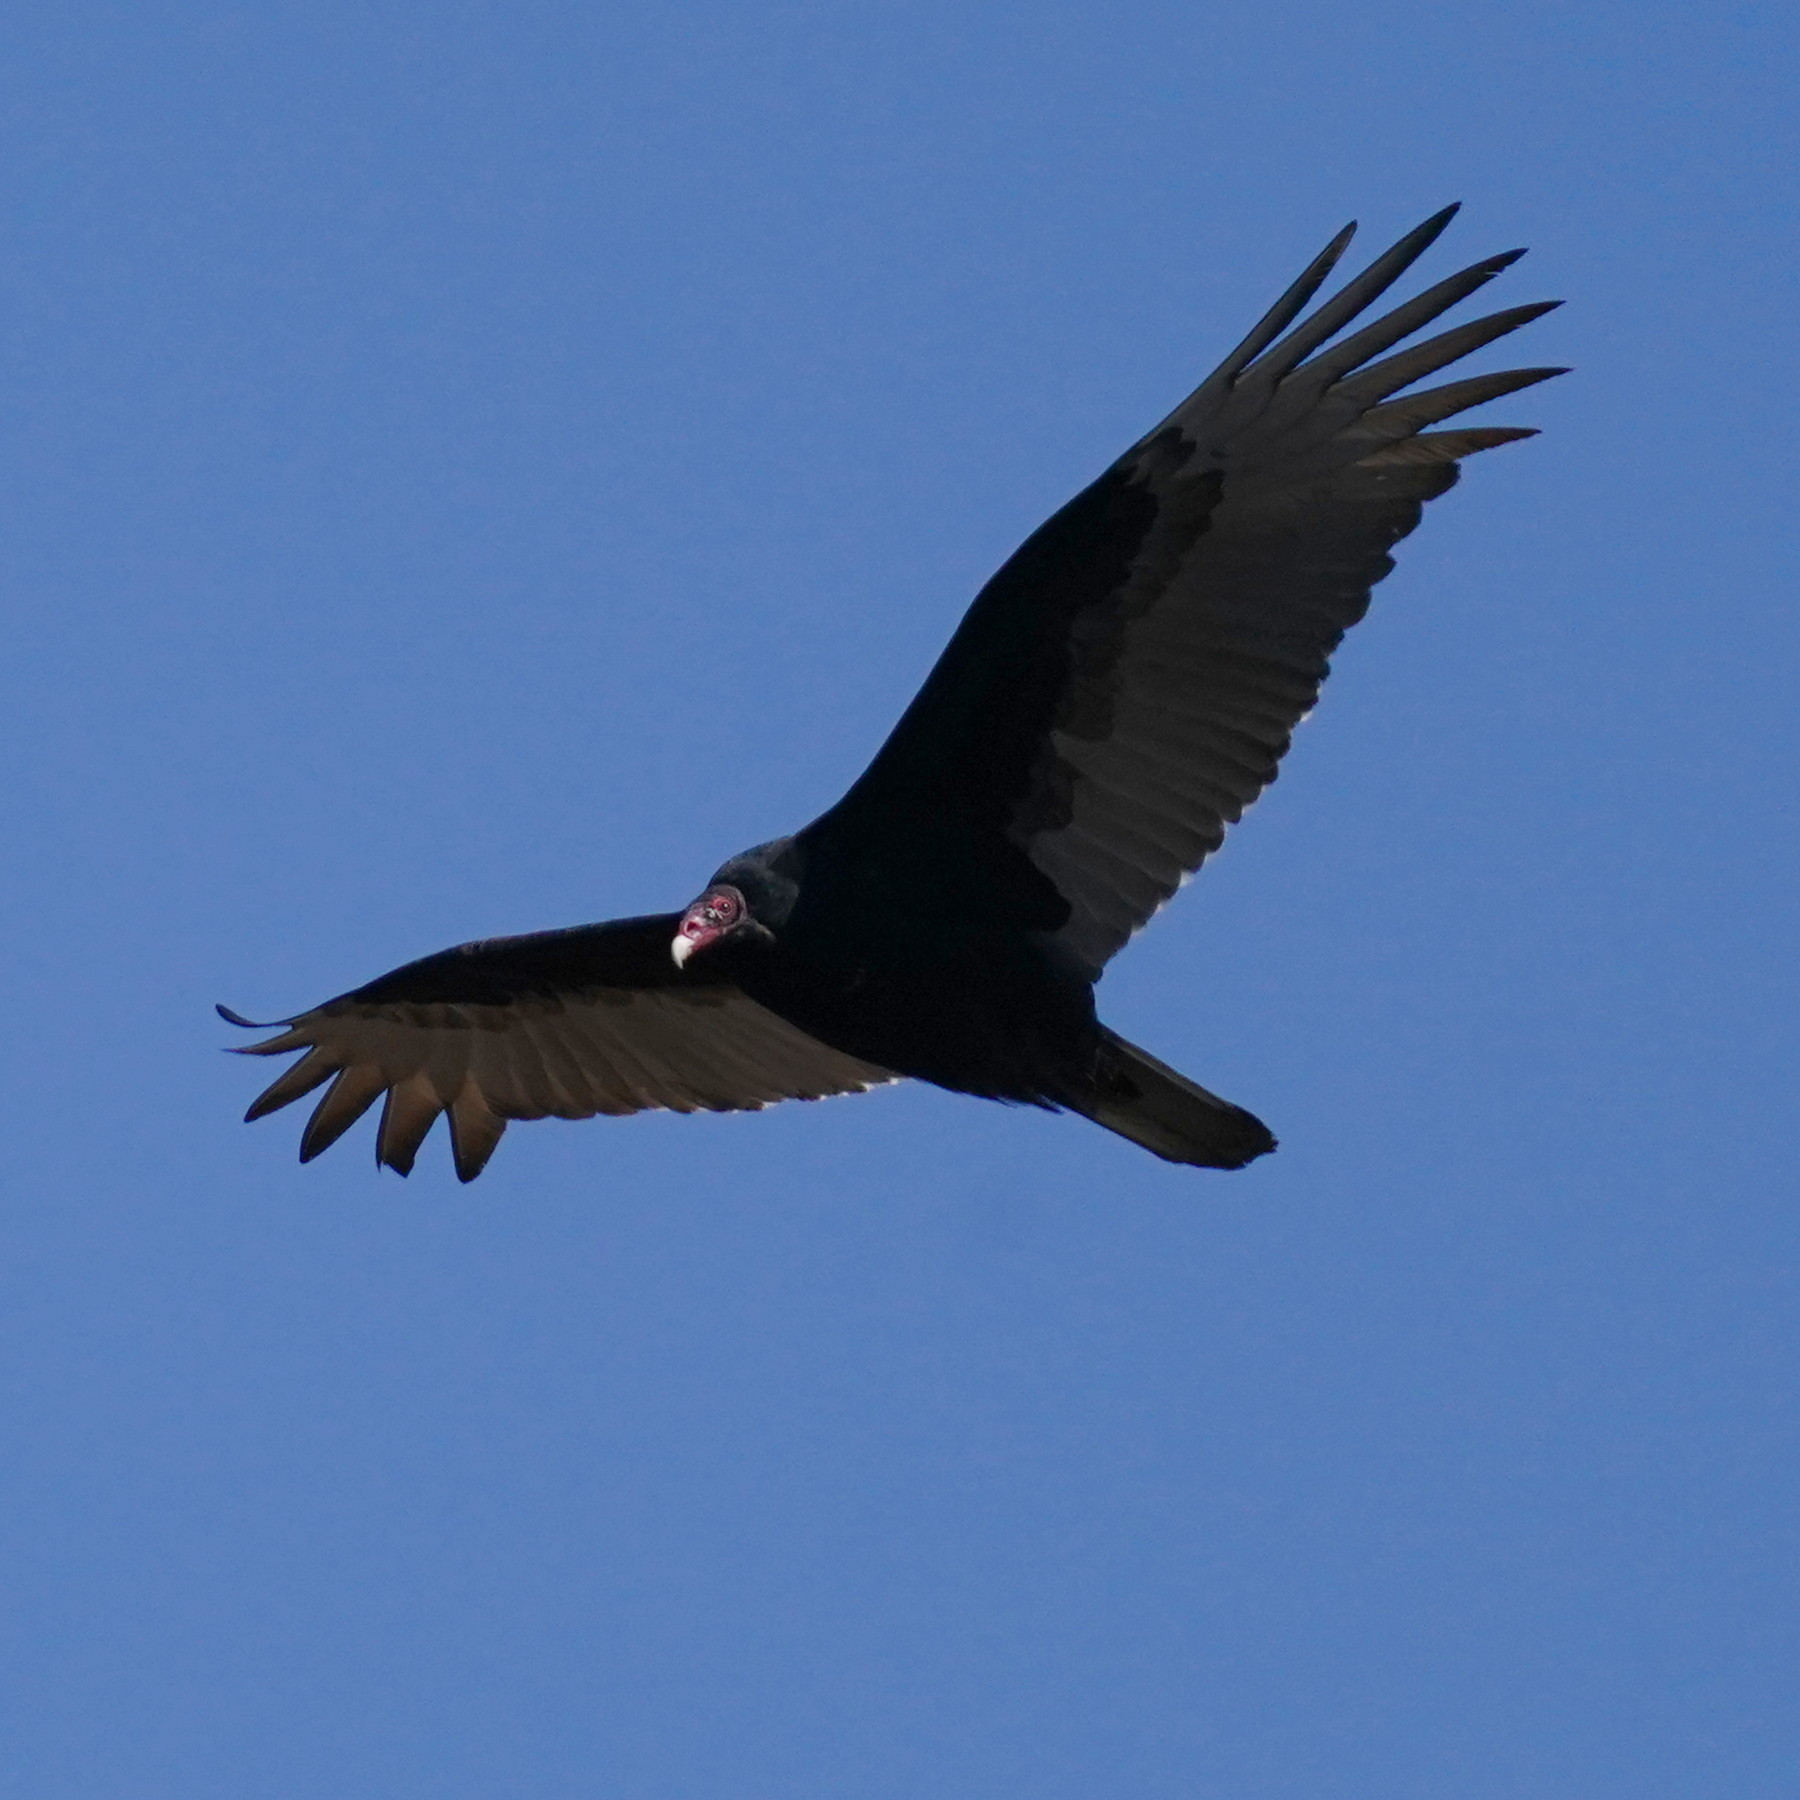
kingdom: Animalia
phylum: Chordata
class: Aves
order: Accipitriformes
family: Cathartidae
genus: Cathartes
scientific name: Cathartes aura
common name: Turkey vulture
